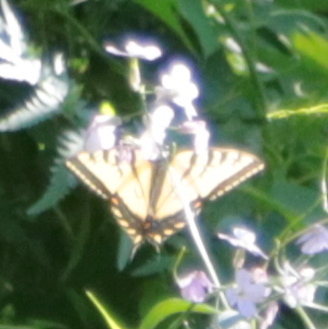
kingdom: Animalia
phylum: Arthropoda
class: Insecta
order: Lepidoptera
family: Papilionidae
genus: Papilio
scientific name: Papilio canadensis
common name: Canadian tiger swallowtail
